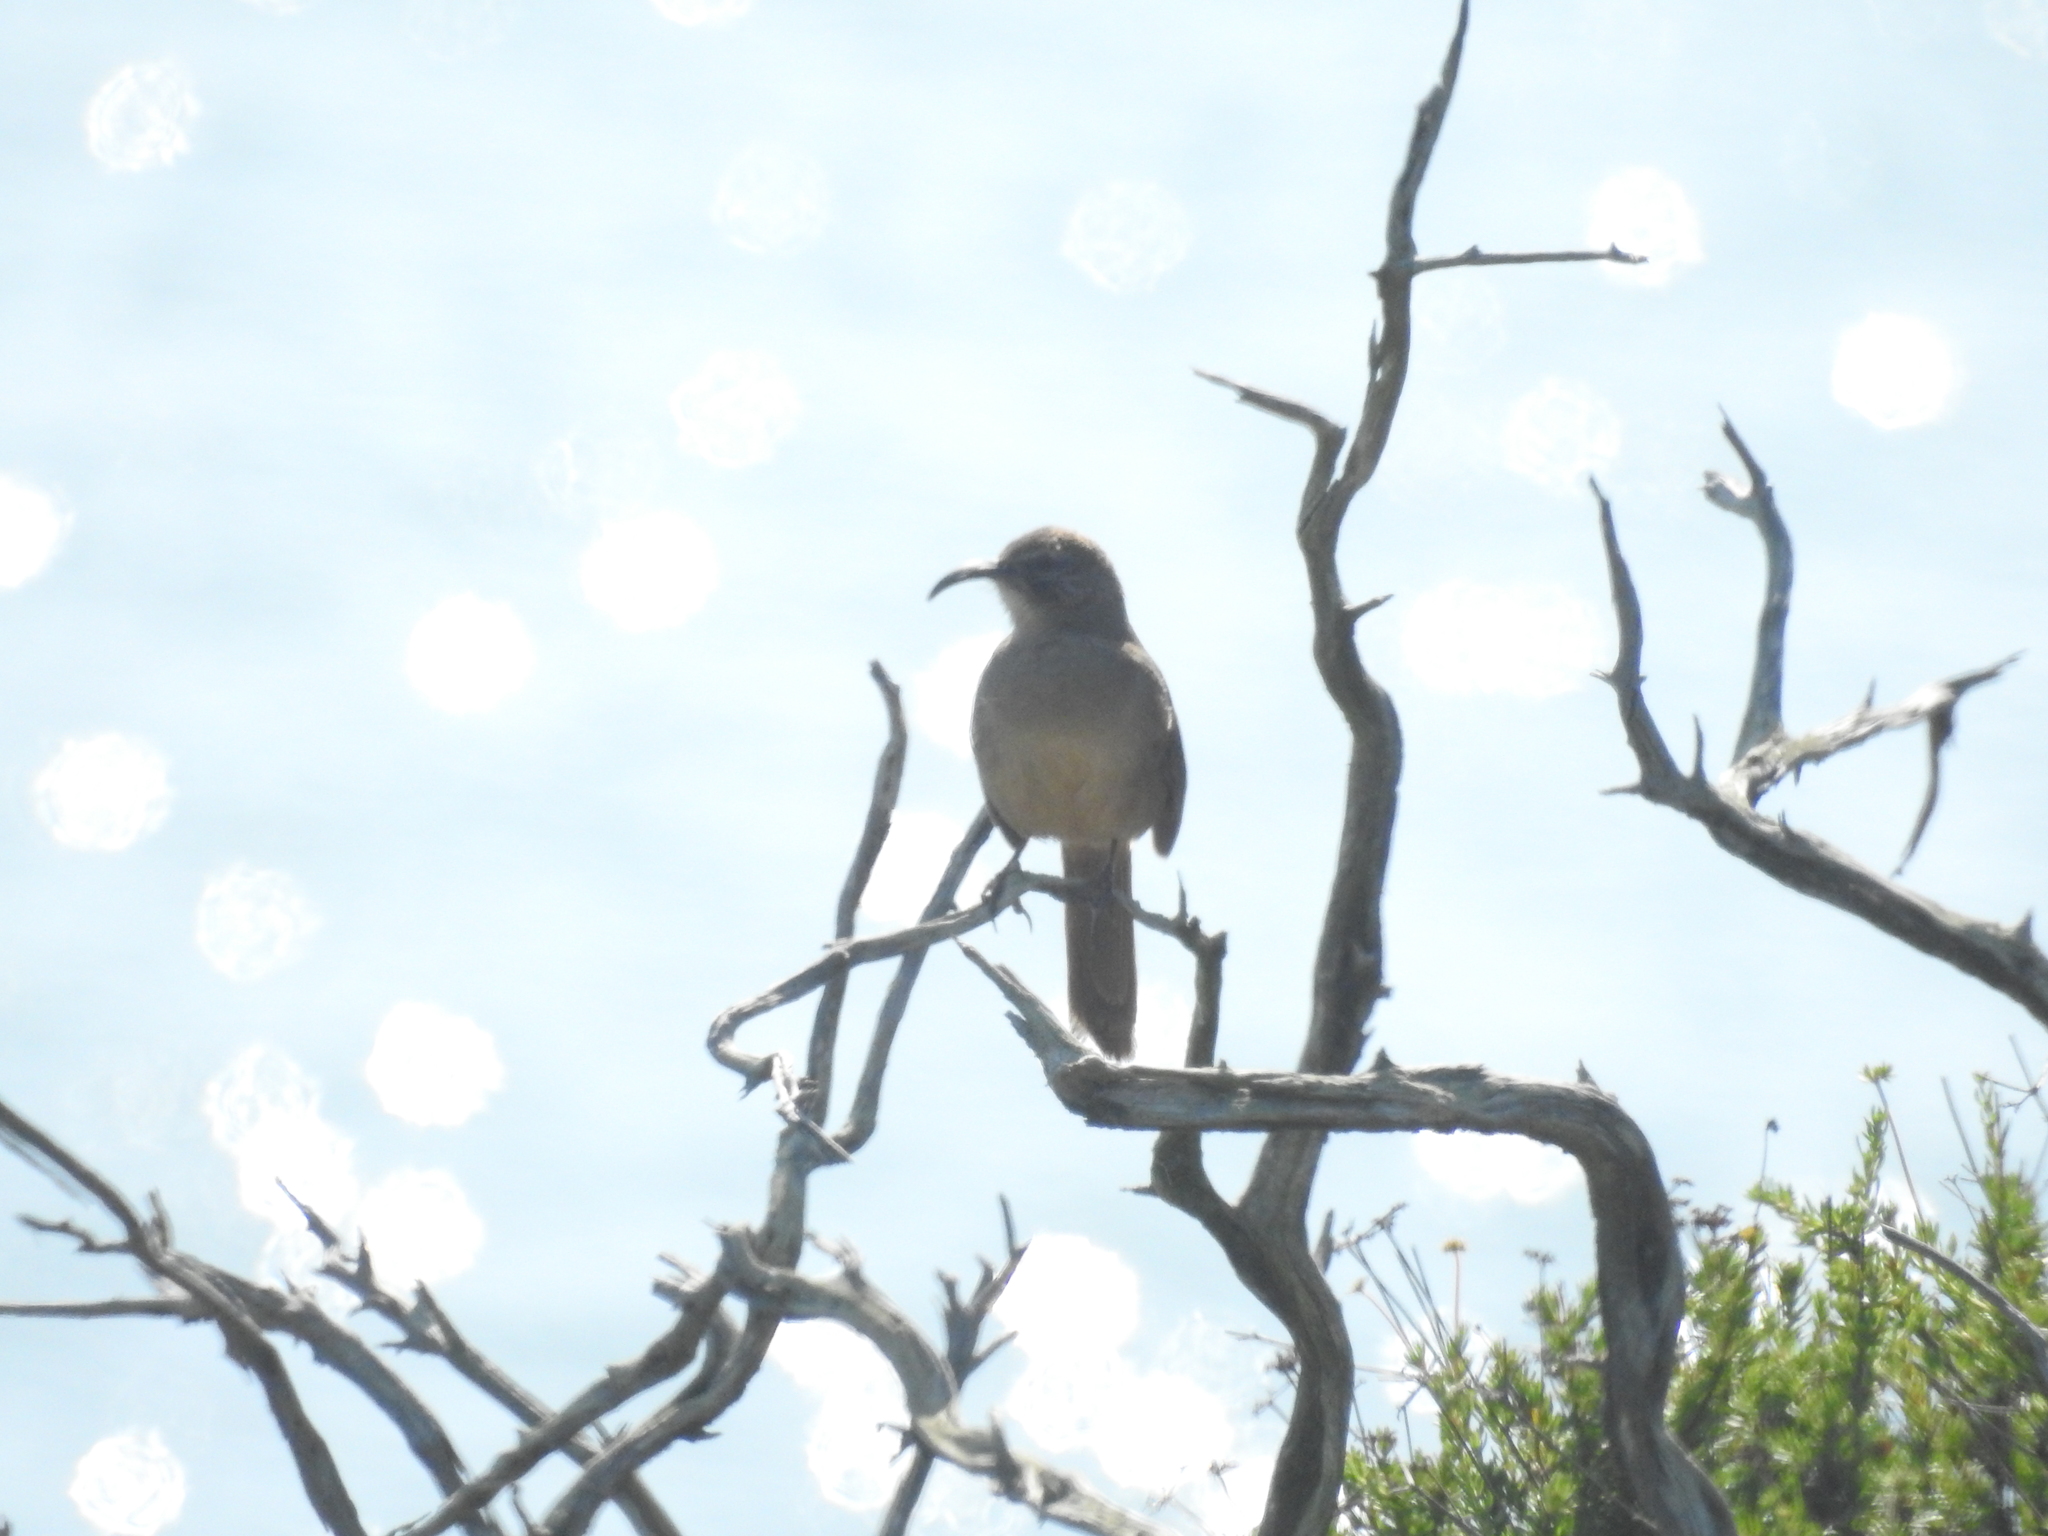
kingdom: Animalia
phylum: Chordata
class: Aves
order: Passeriformes
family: Mimidae
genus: Toxostoma
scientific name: Toxostoma redivivum
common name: California thrasher
